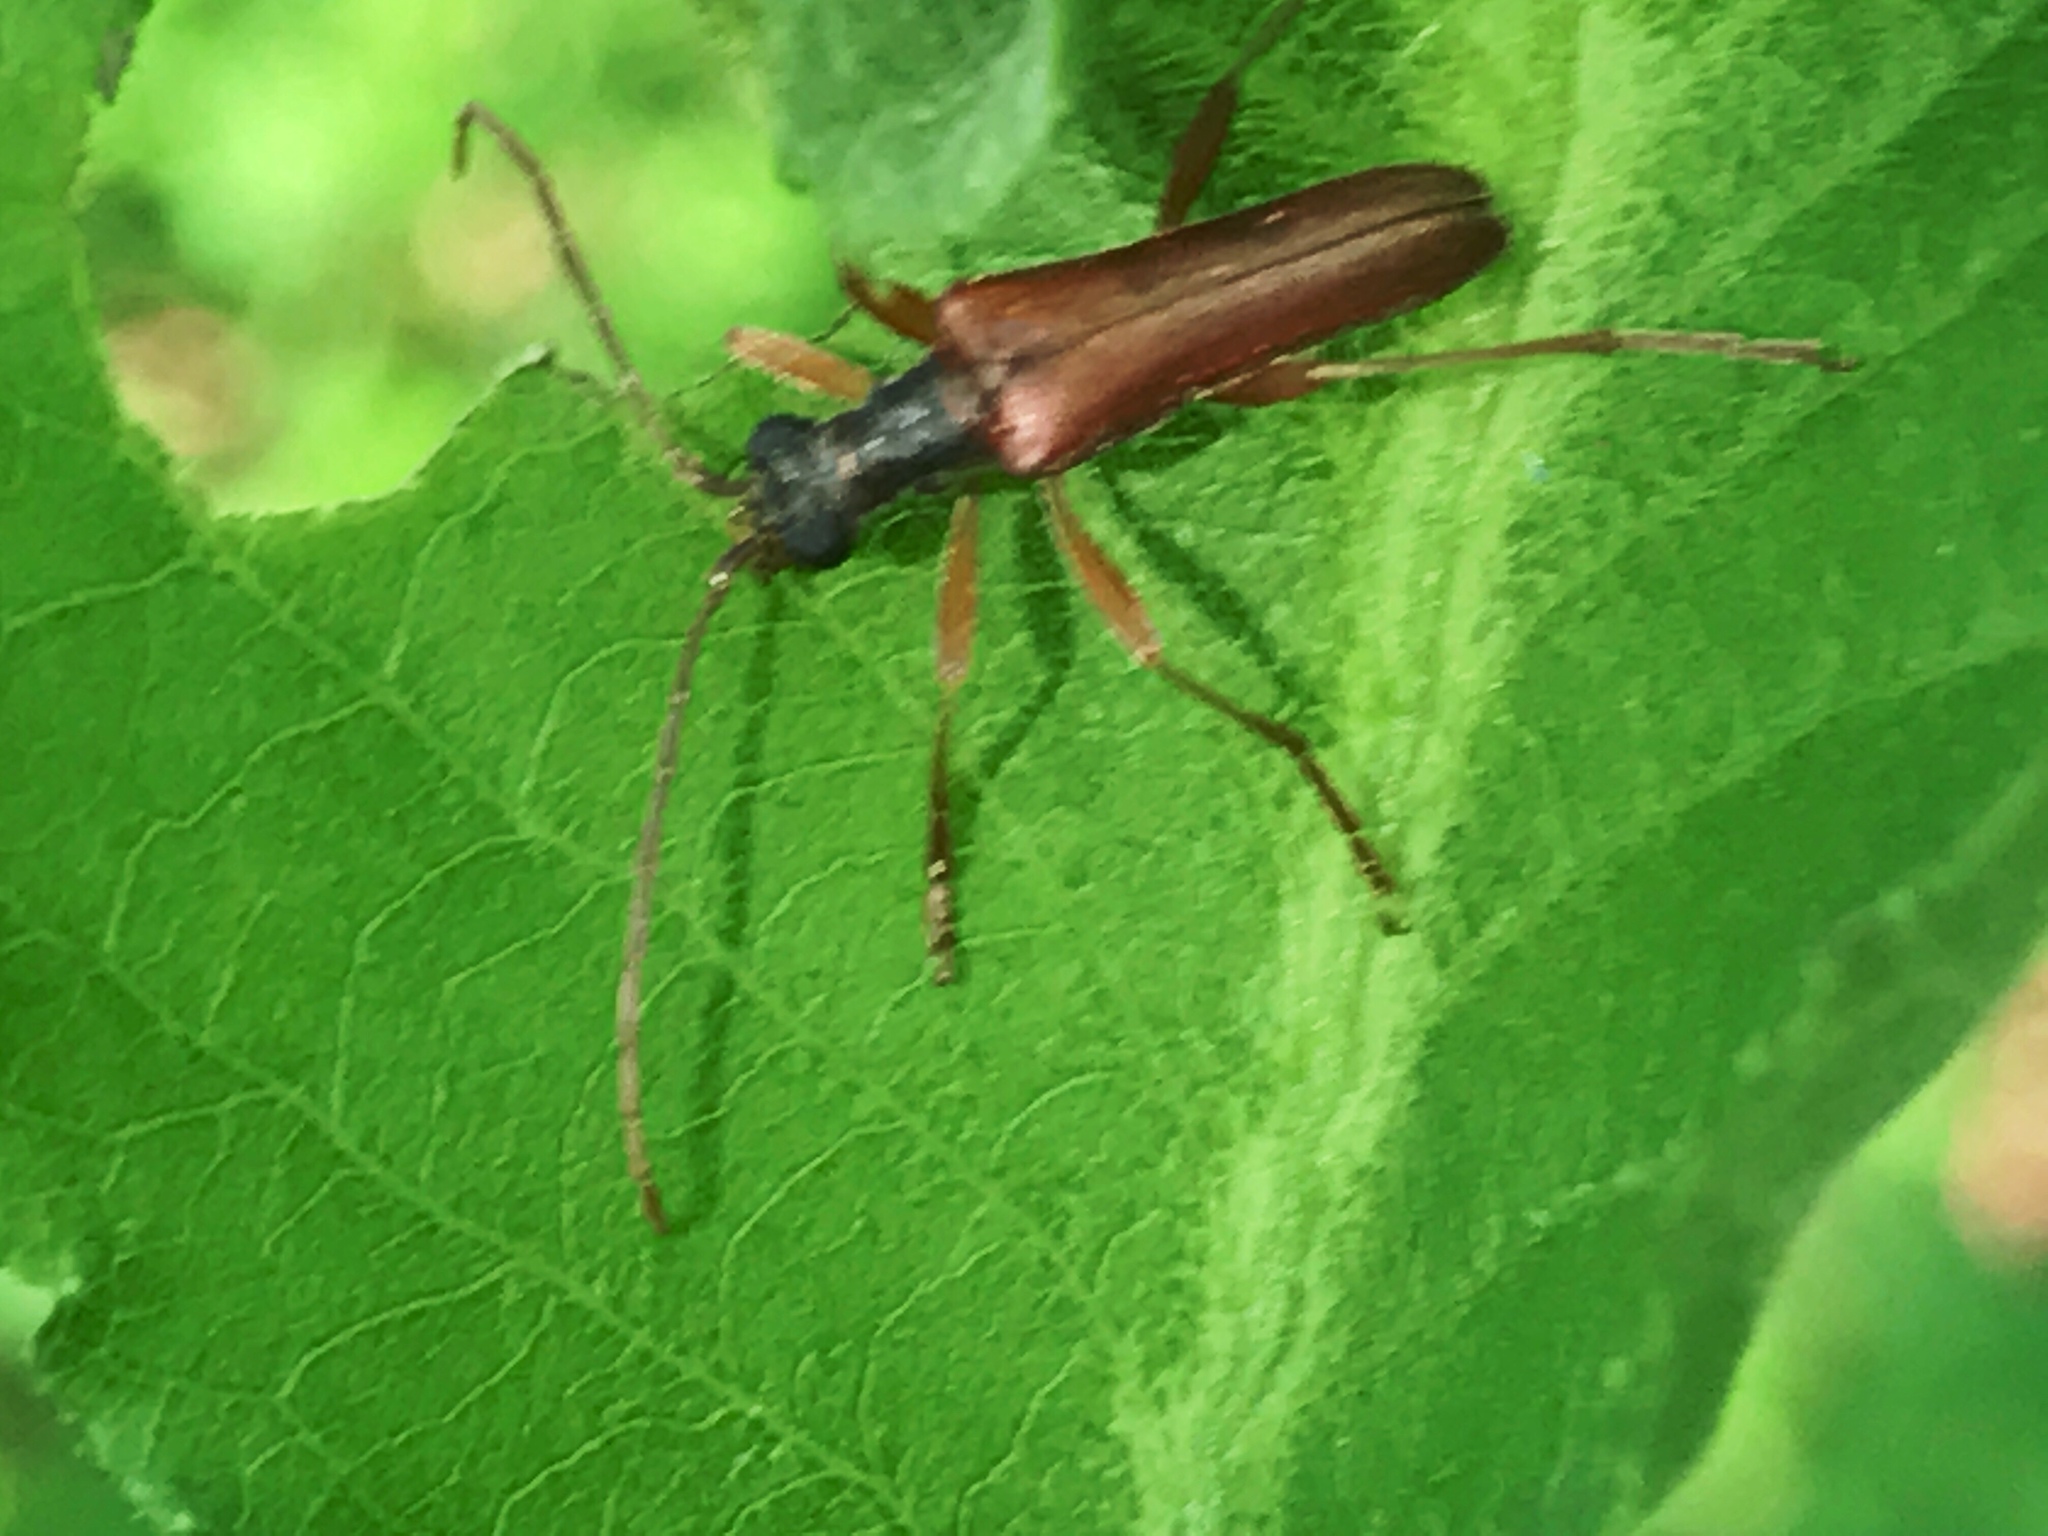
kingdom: Animalia
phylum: Arthropoda
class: Insecta
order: Coleoptera
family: Cerambycidae
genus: Stenocorus
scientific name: Stenocorus cinnamopterus
